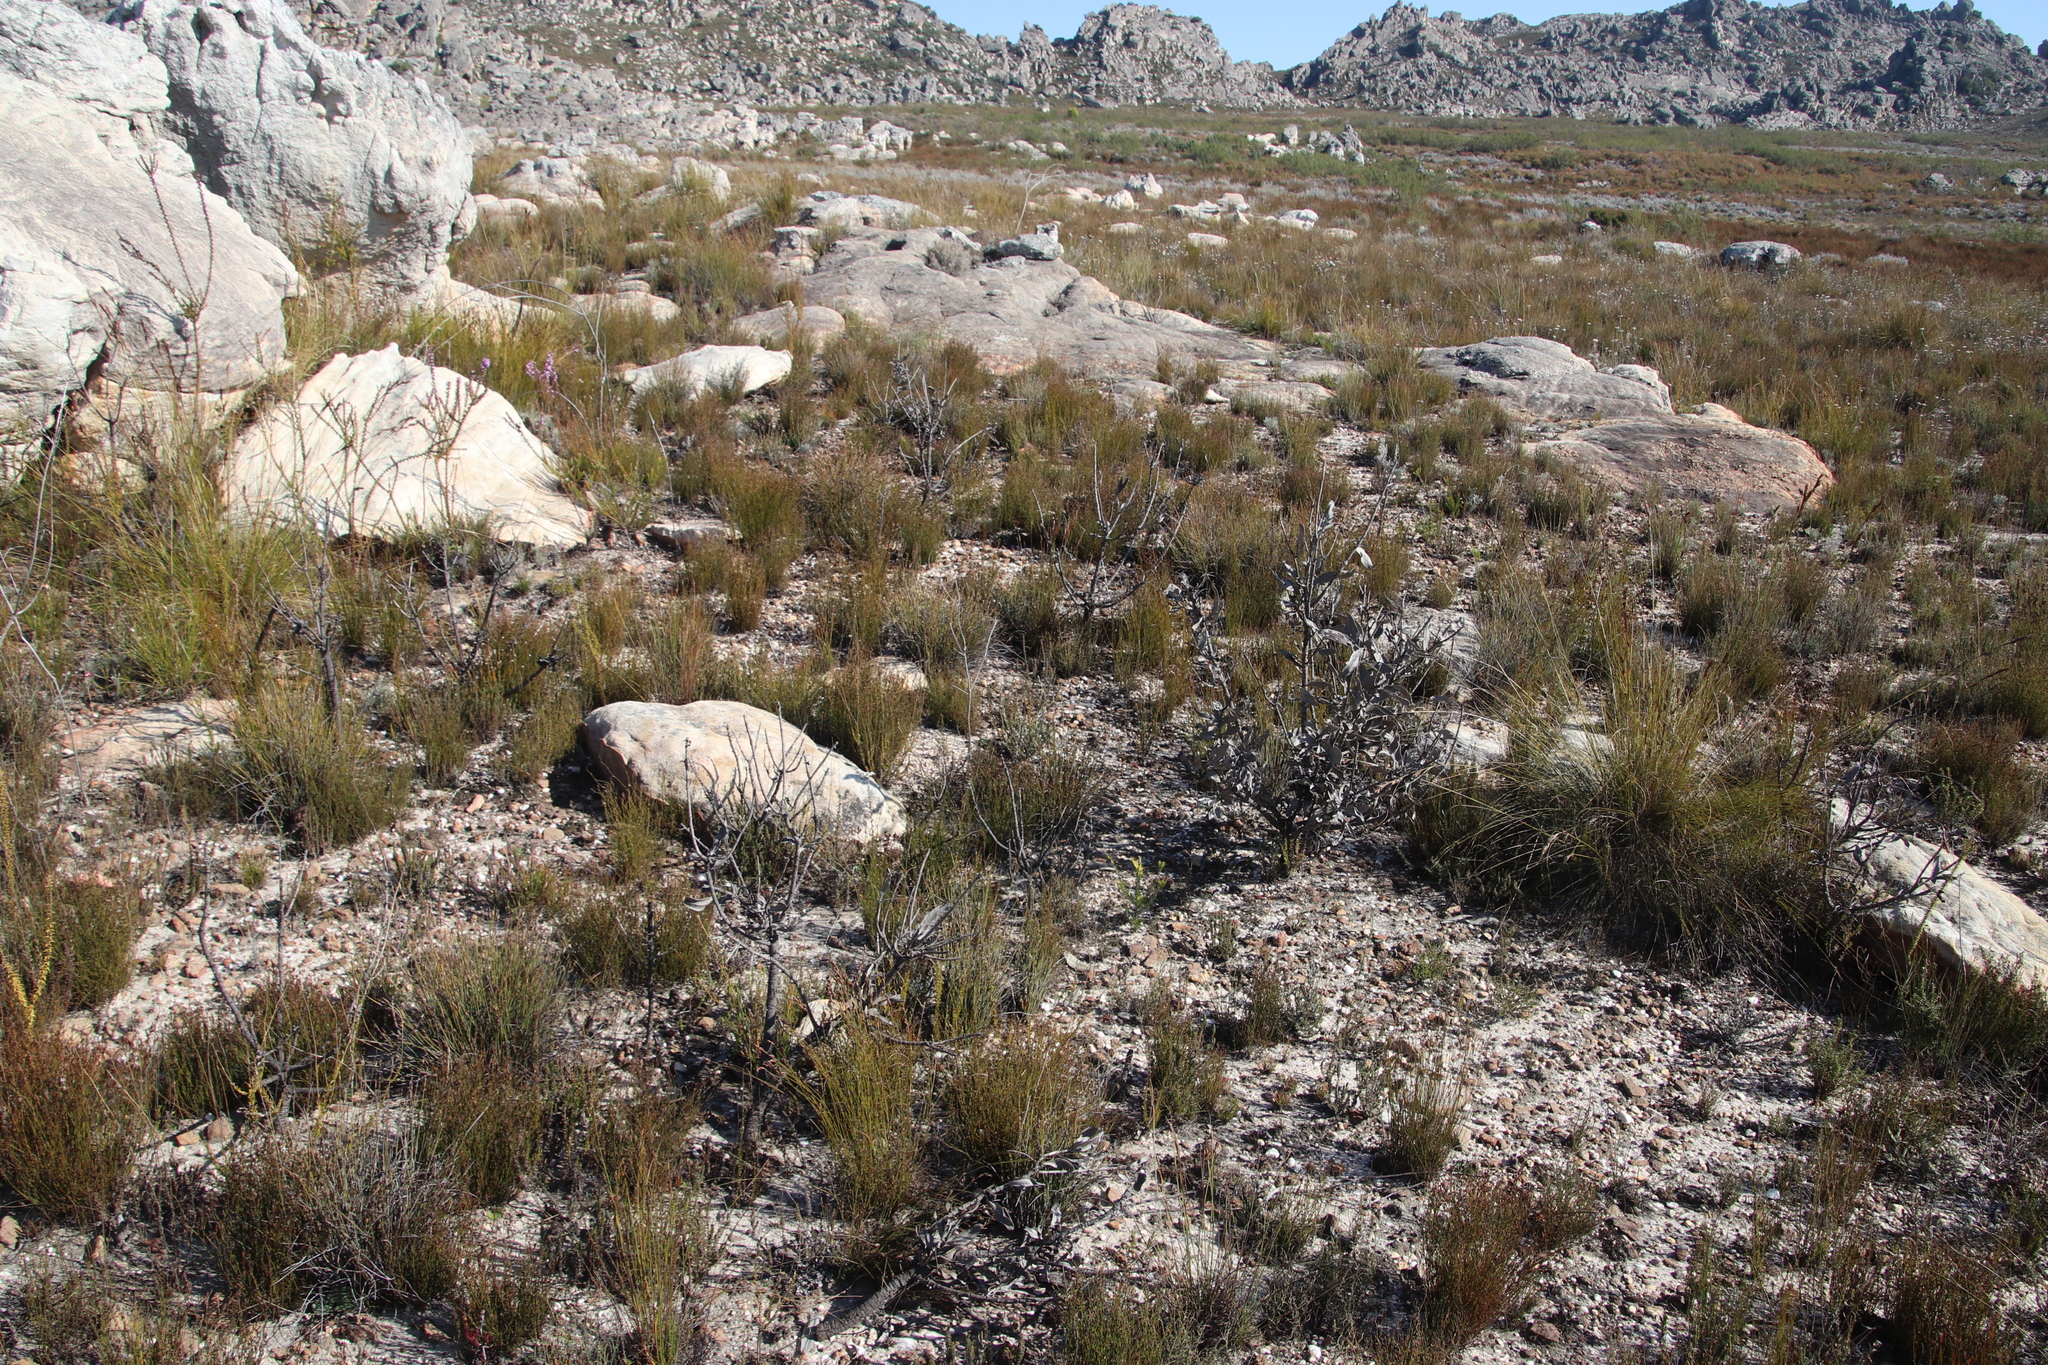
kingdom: Plantae
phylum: Tracheophyta
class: Magnoliopsida
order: Proteales
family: Proteaceae
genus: Protea
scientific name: Protea laurifolia
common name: Grey-leaf sugarbsh
